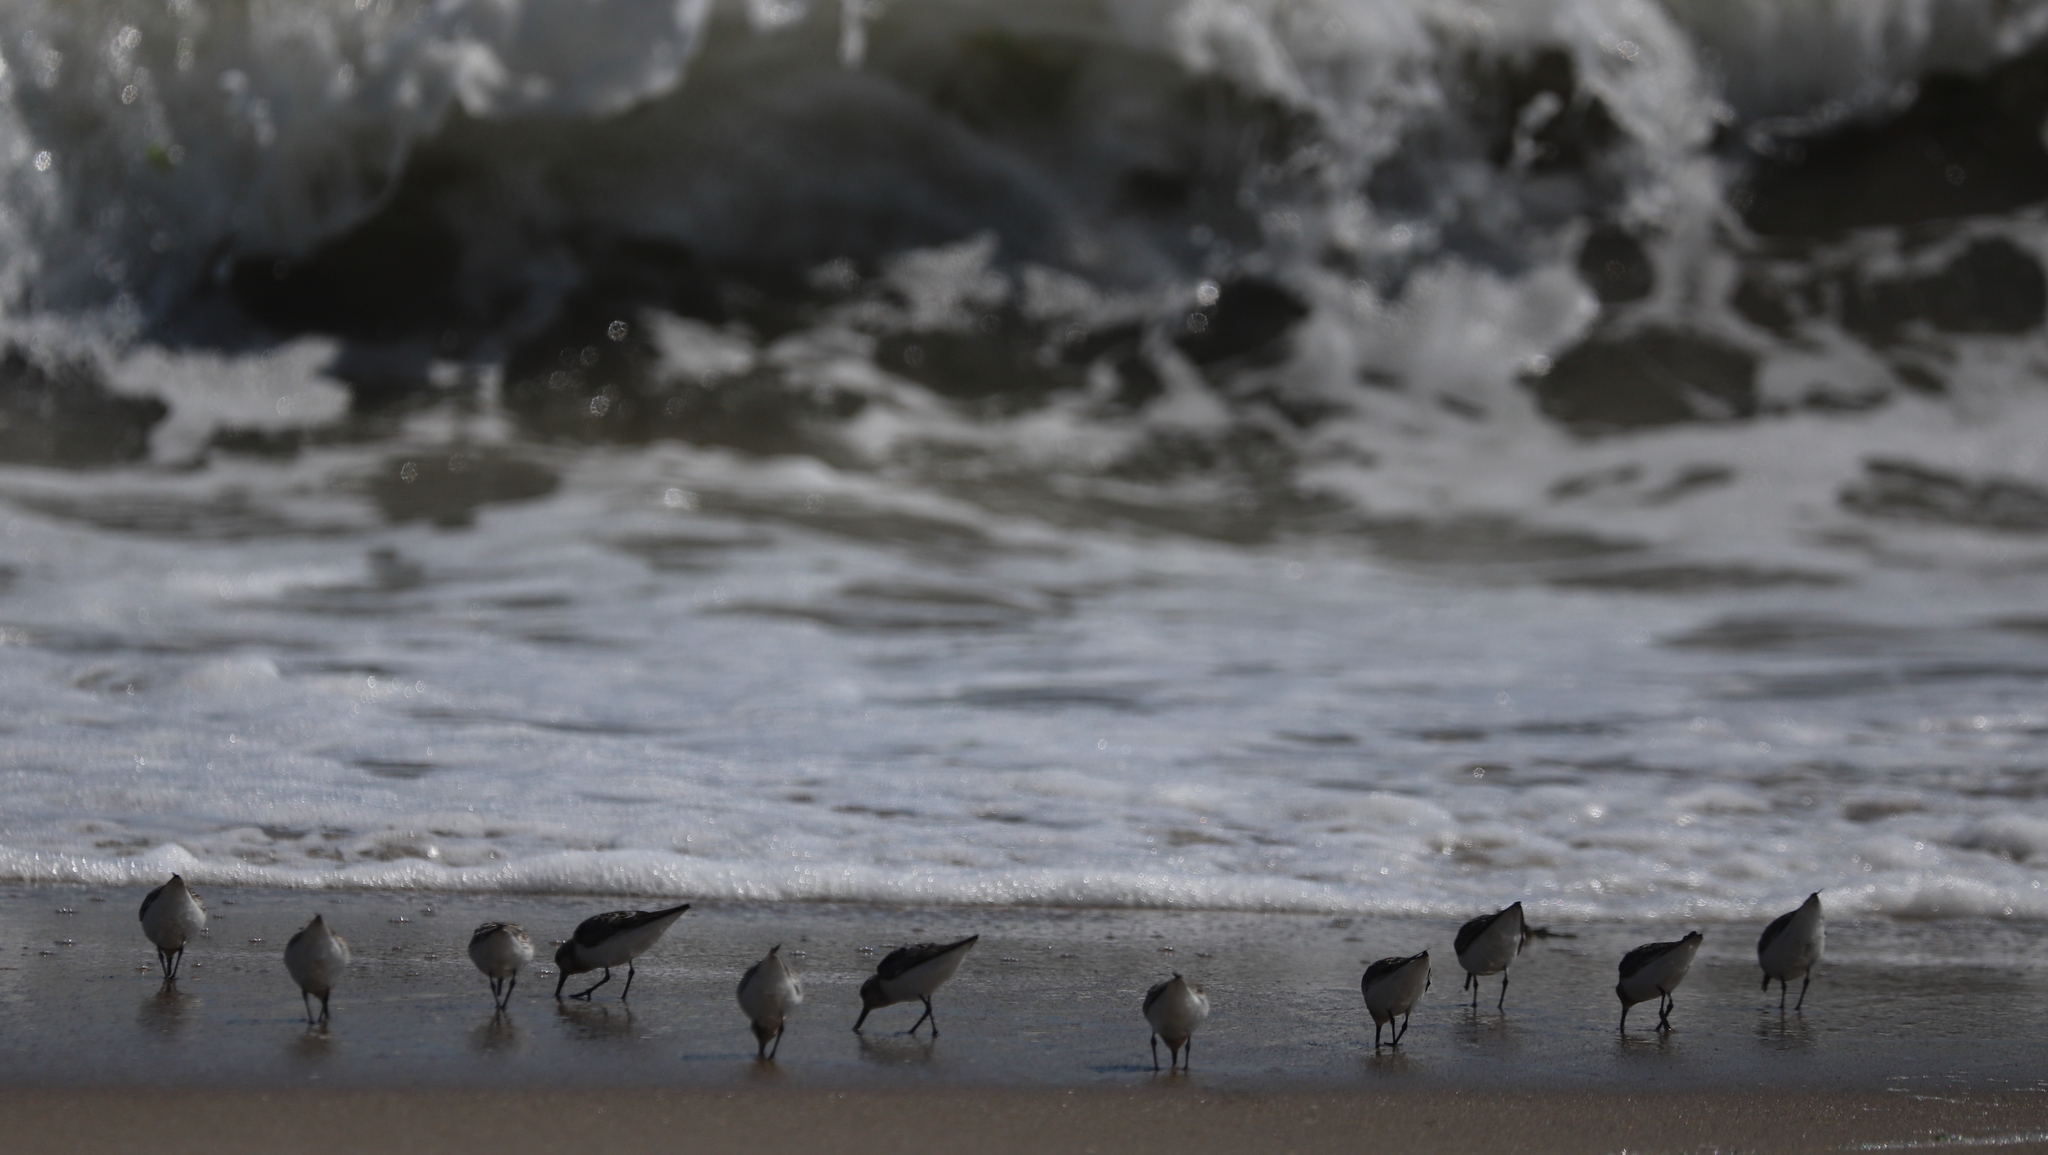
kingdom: Animalia
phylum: Chordata
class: Aves
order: Charadriiformes
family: Scolopacidae
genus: Calidris
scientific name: Calidris alba
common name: Sanderling
